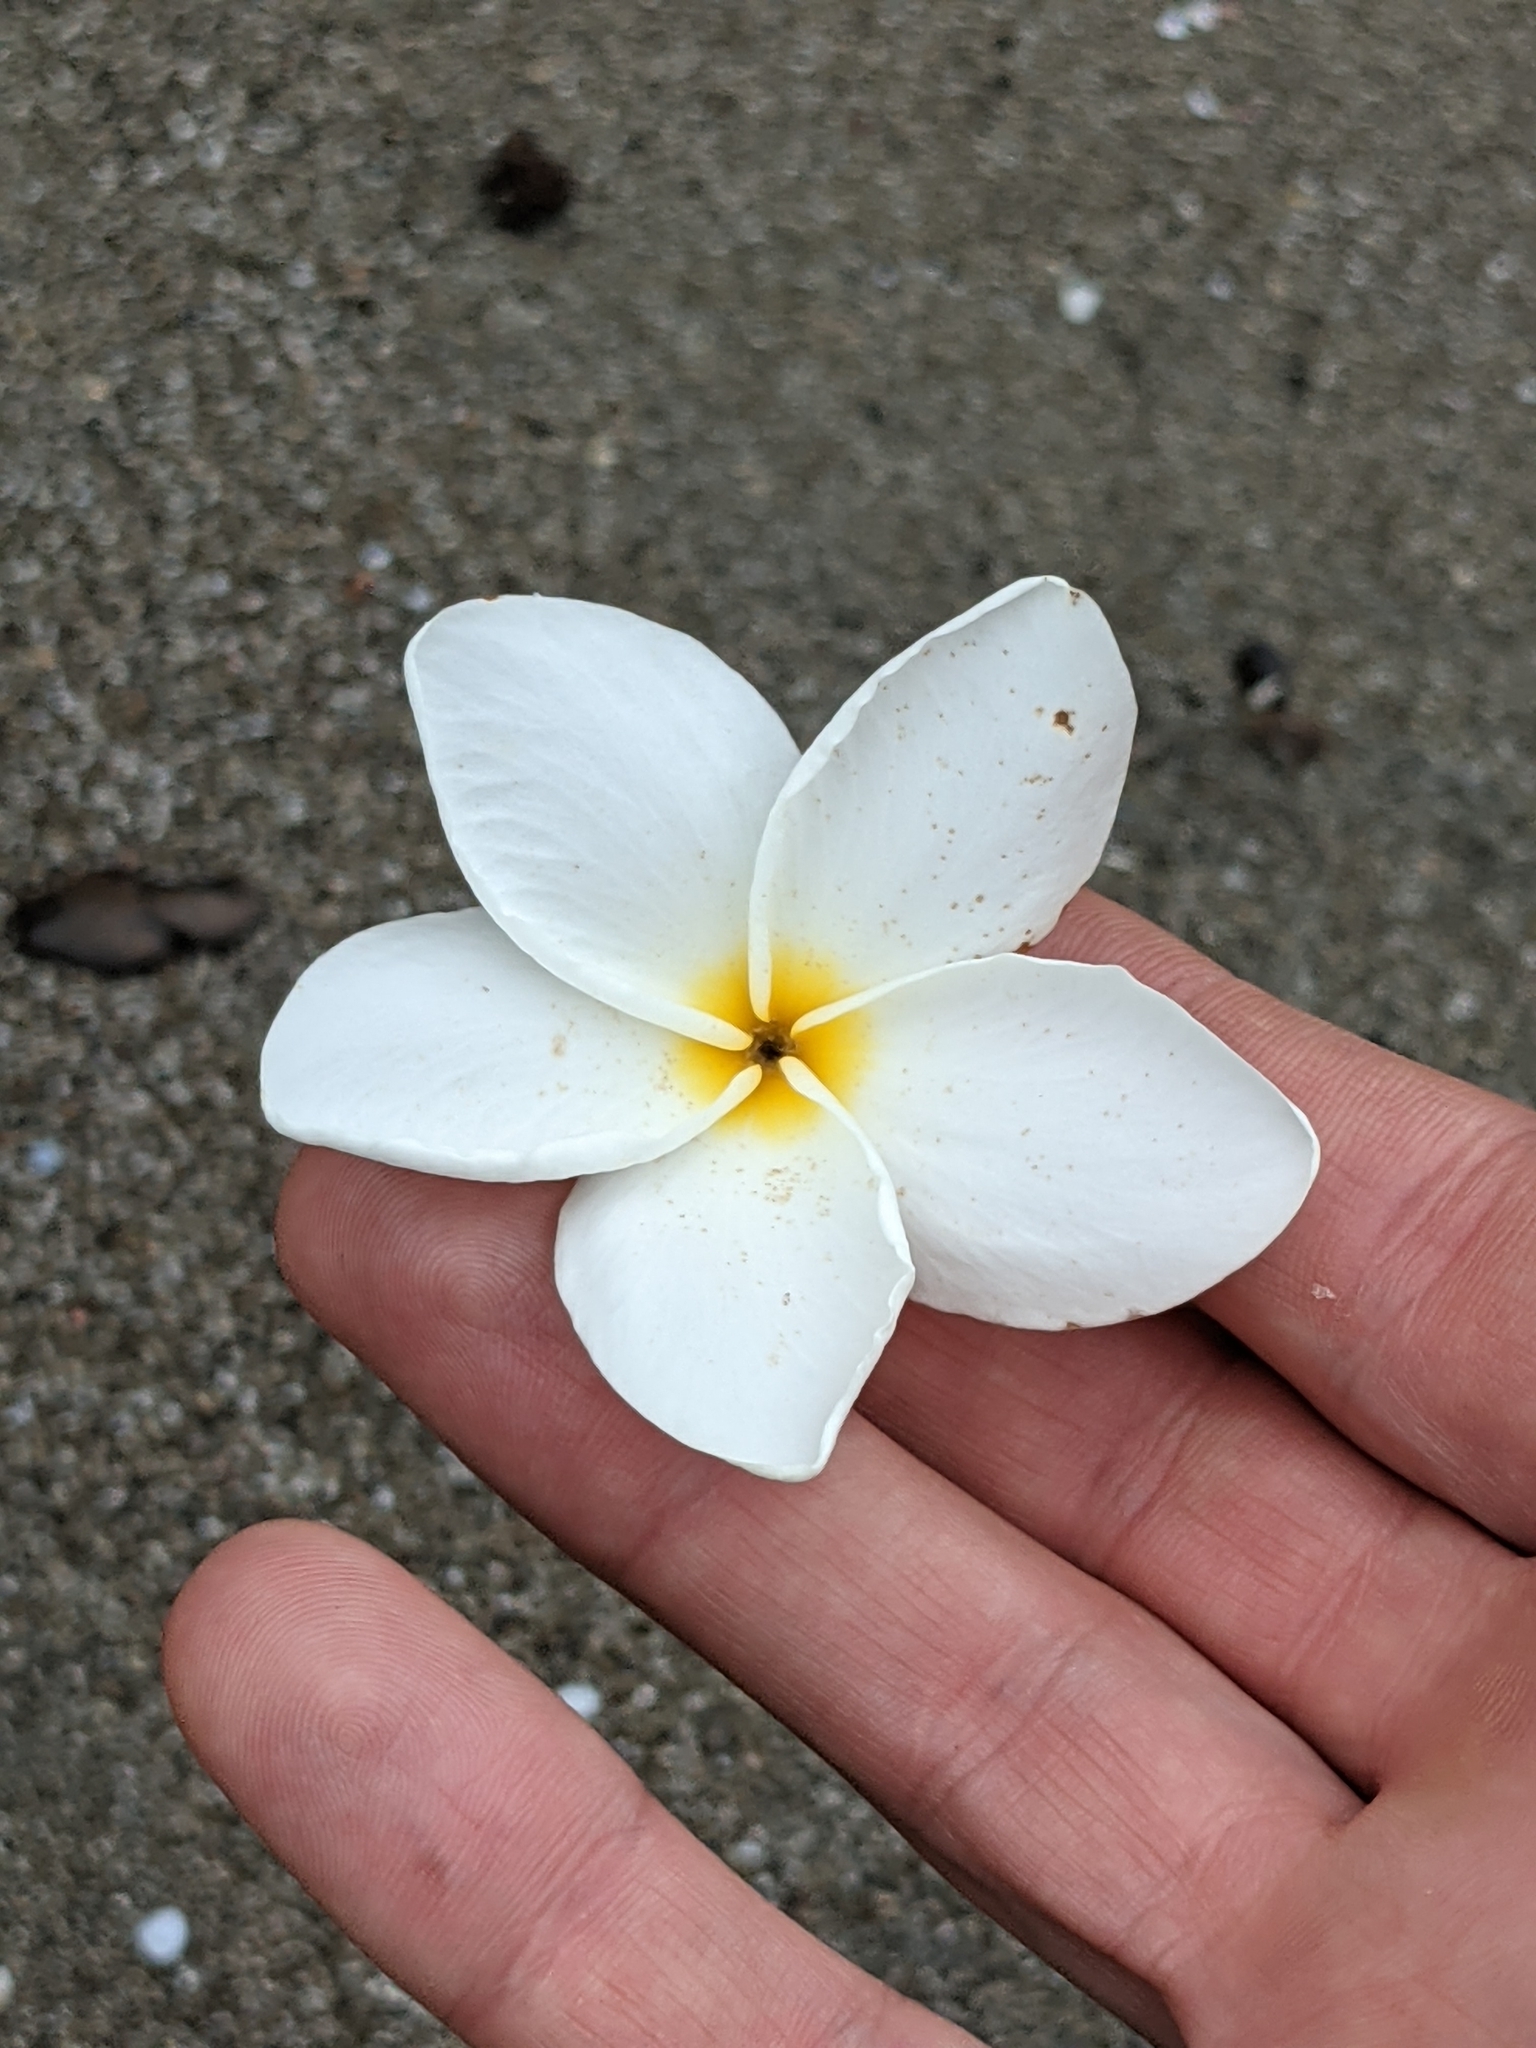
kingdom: Plantae
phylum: Tracheophyta
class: Magnoliopsida
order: Gentianales
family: Apocynaceae
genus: Plumeria
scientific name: Plumeria rubra
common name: Pagoda-tree
